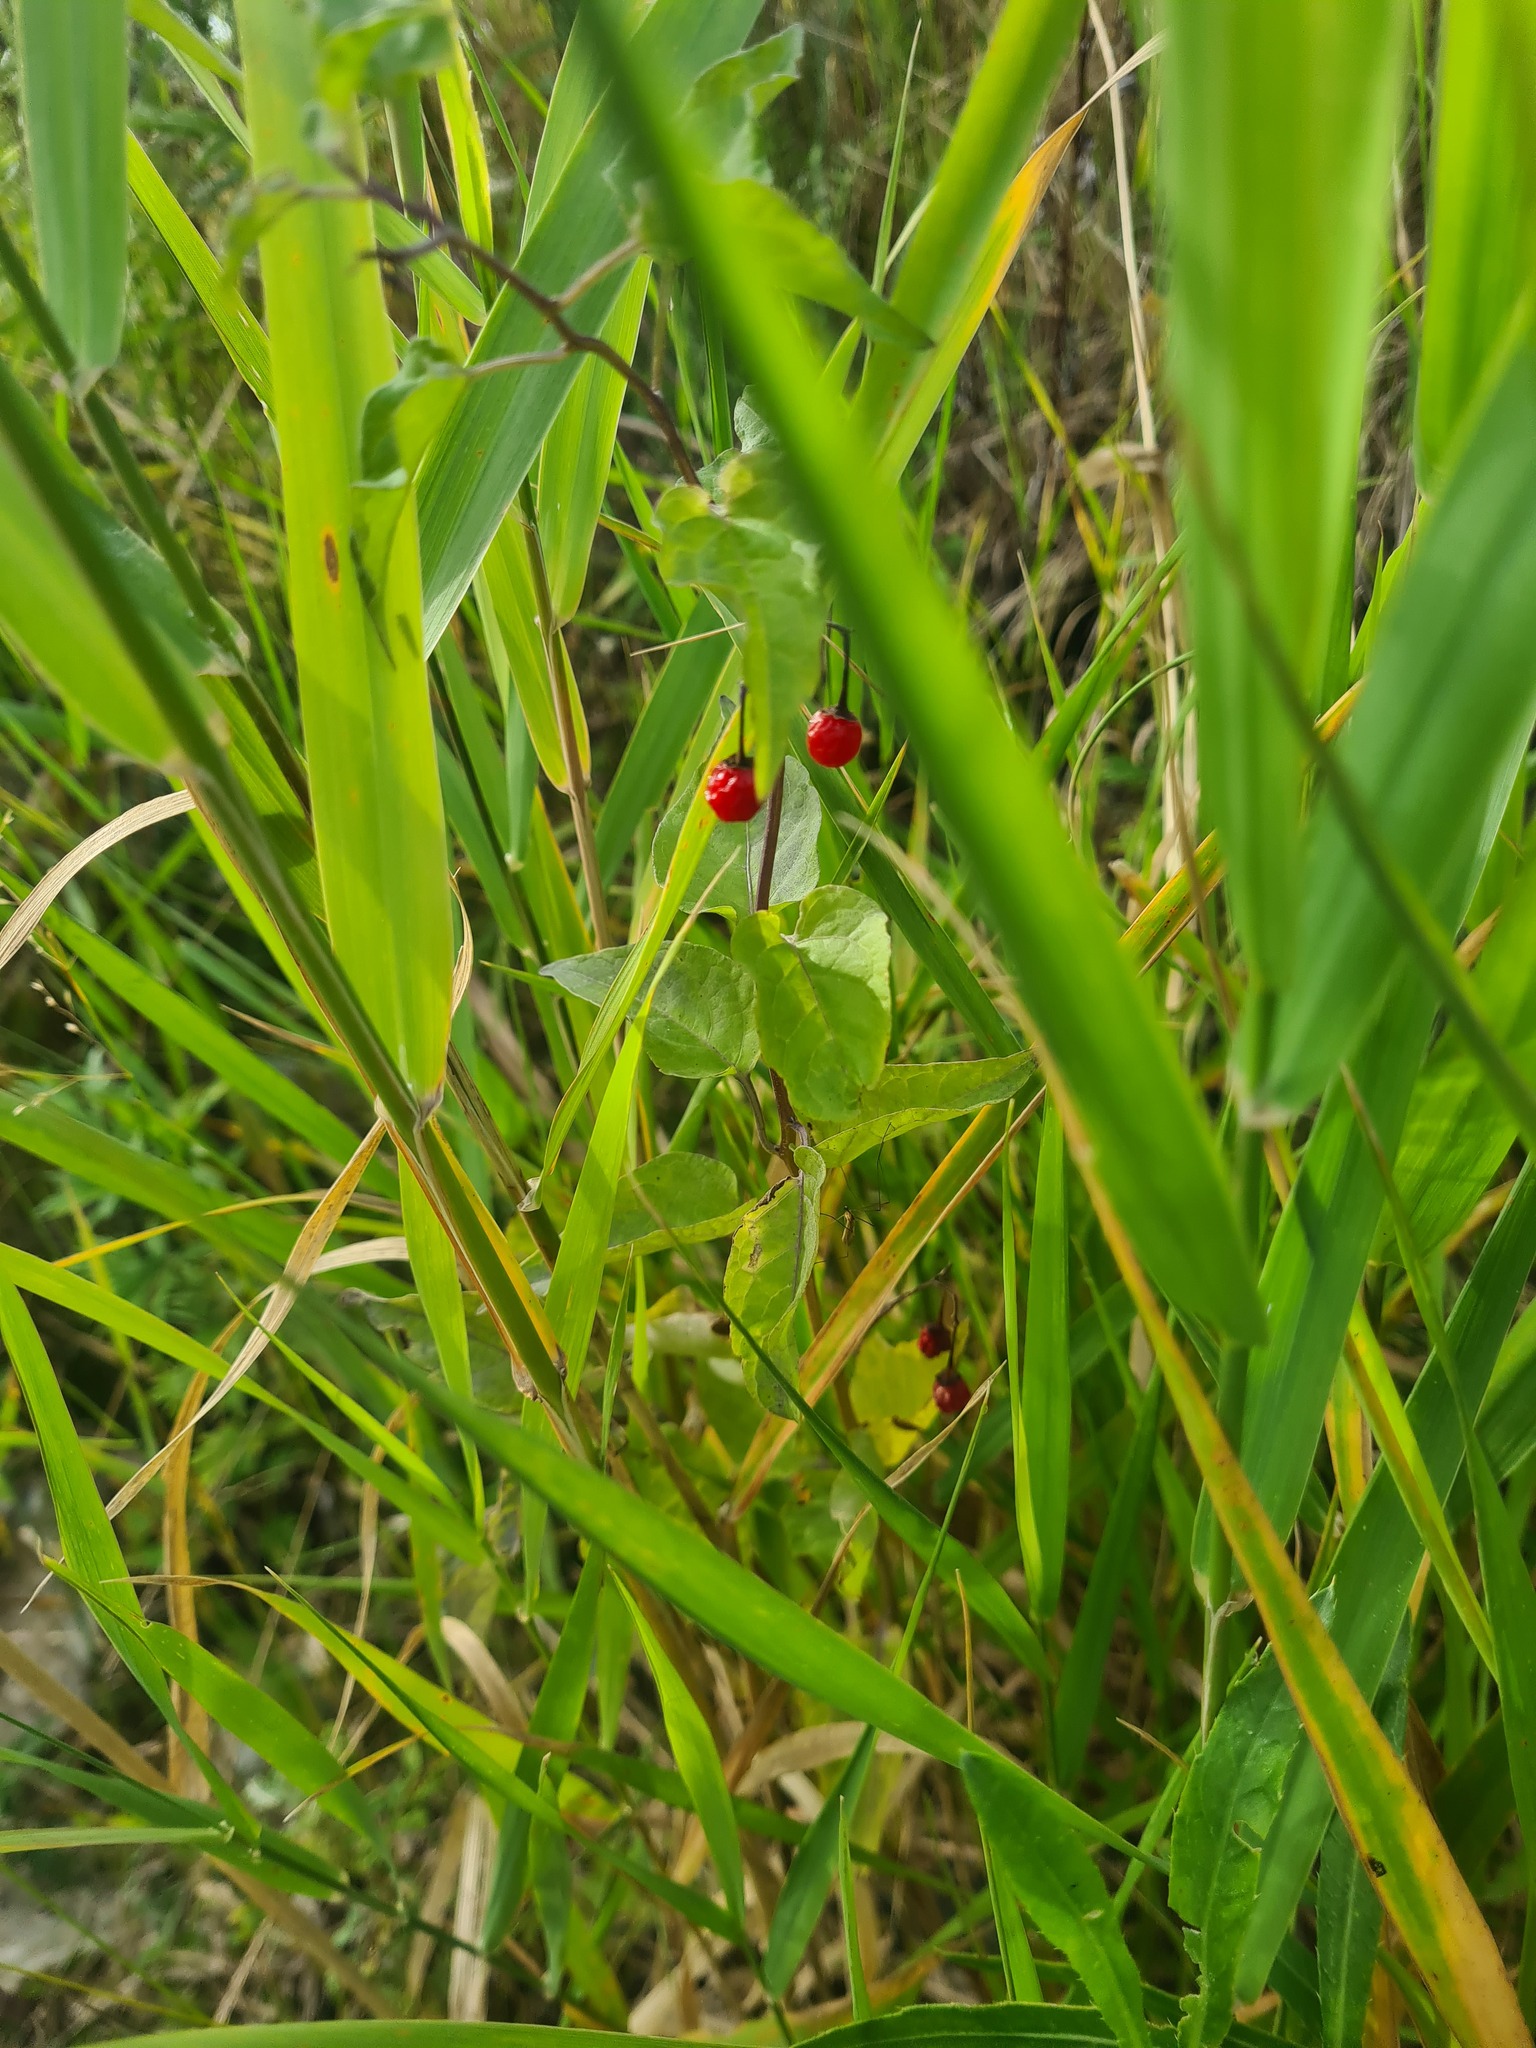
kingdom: Plantae
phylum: Tracheophyta
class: Magnoliopsida
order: Solanales
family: Solanaceae
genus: Solanum
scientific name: Solanum dulcamara
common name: Climbing nightshade
